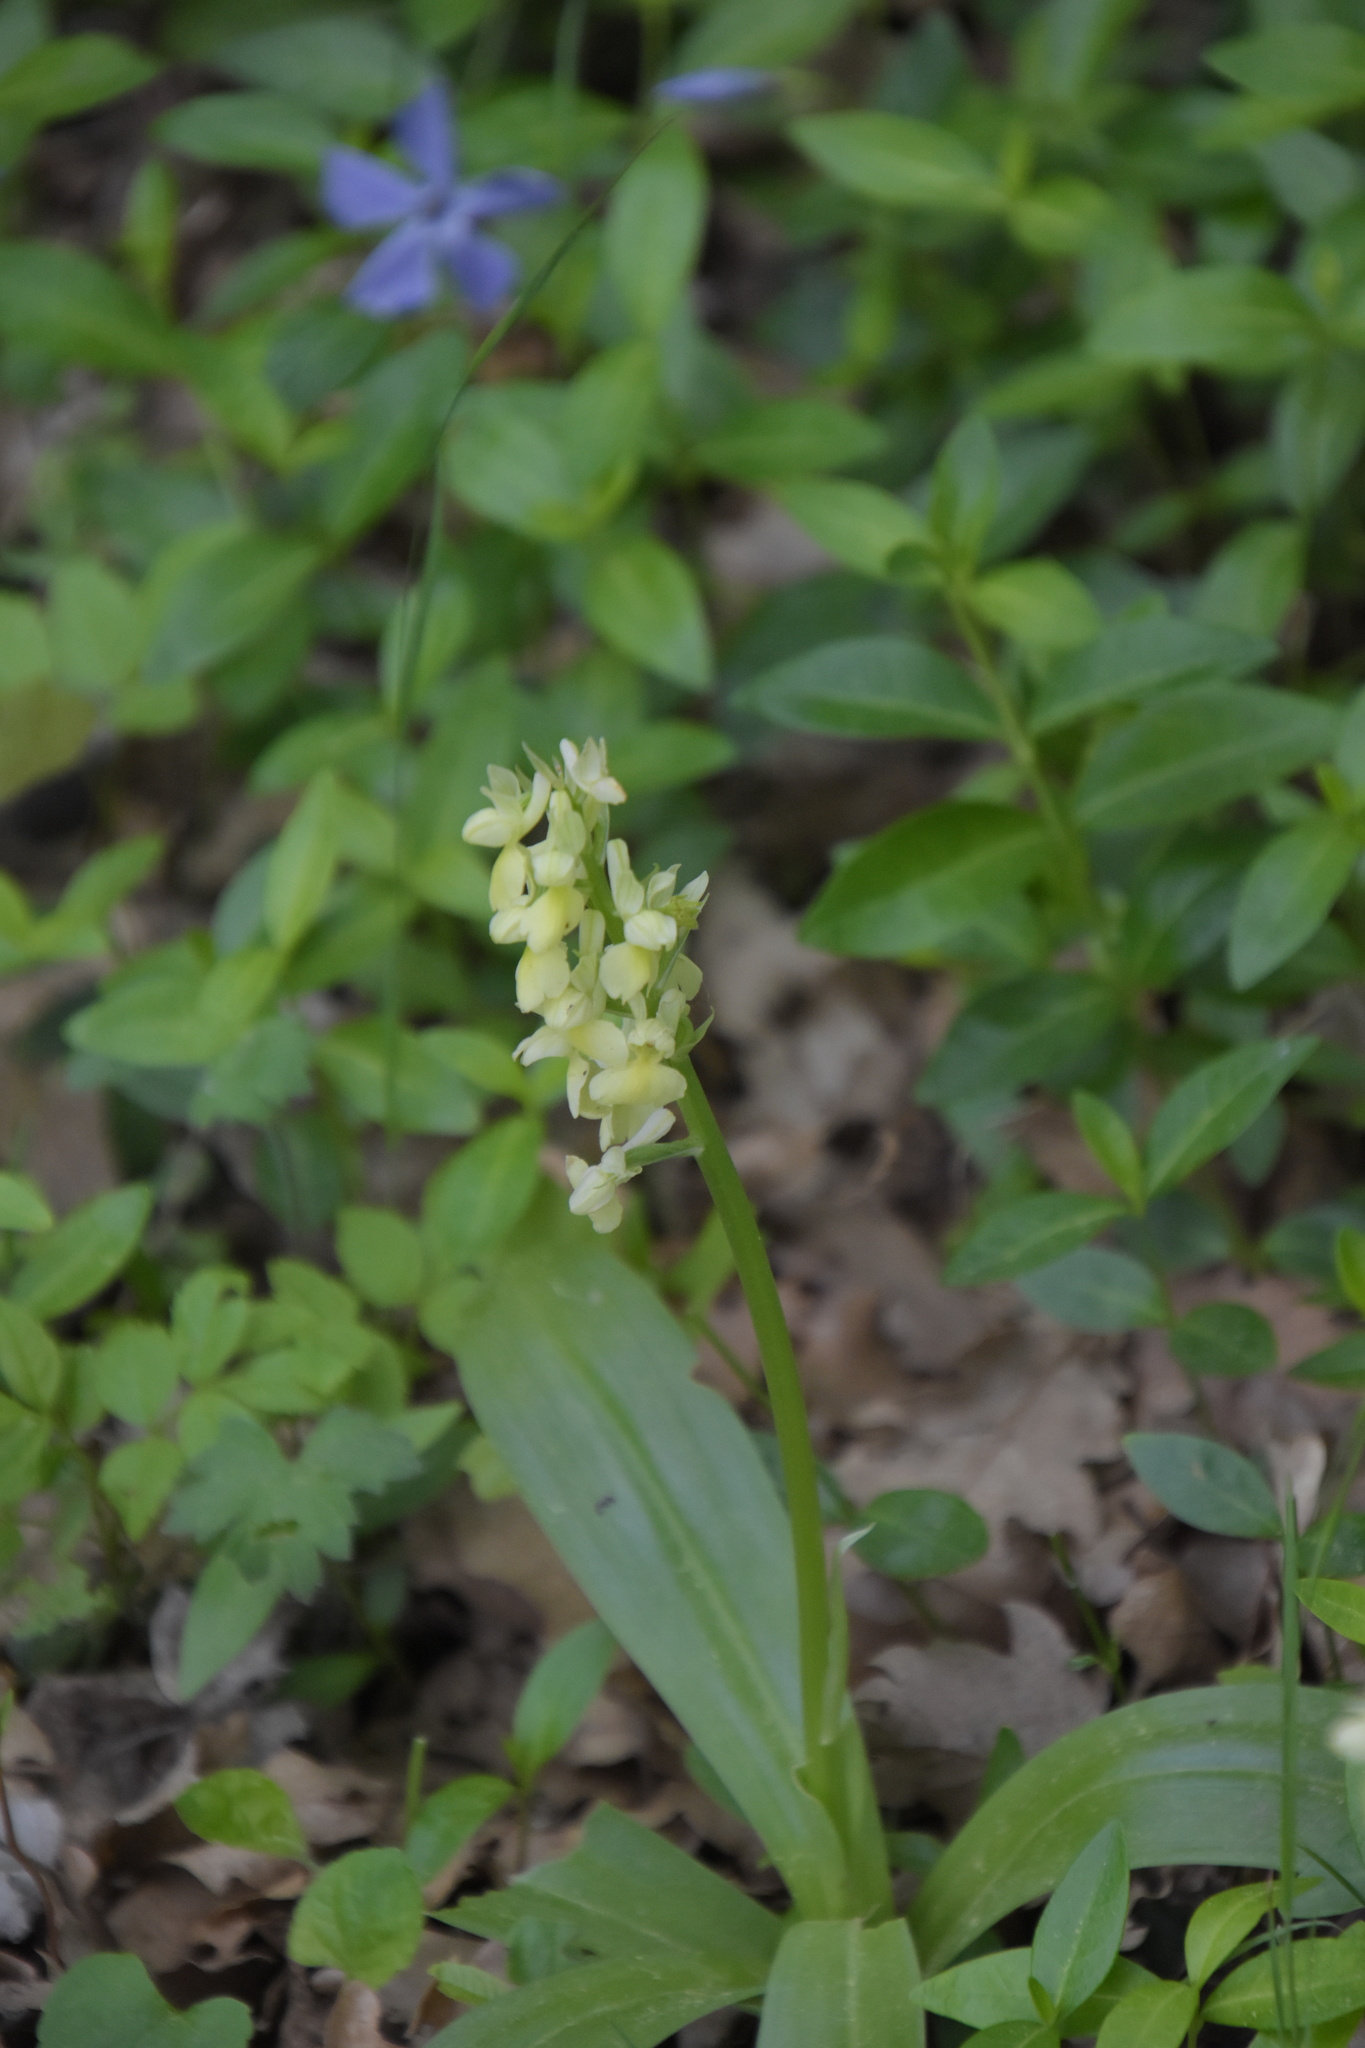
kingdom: Plantae
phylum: Tracheophyta
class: Liliopsida
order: Asparagales
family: Orchidaceae
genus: Orchis
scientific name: Orchis pallens
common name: Pale-flowered orchid
